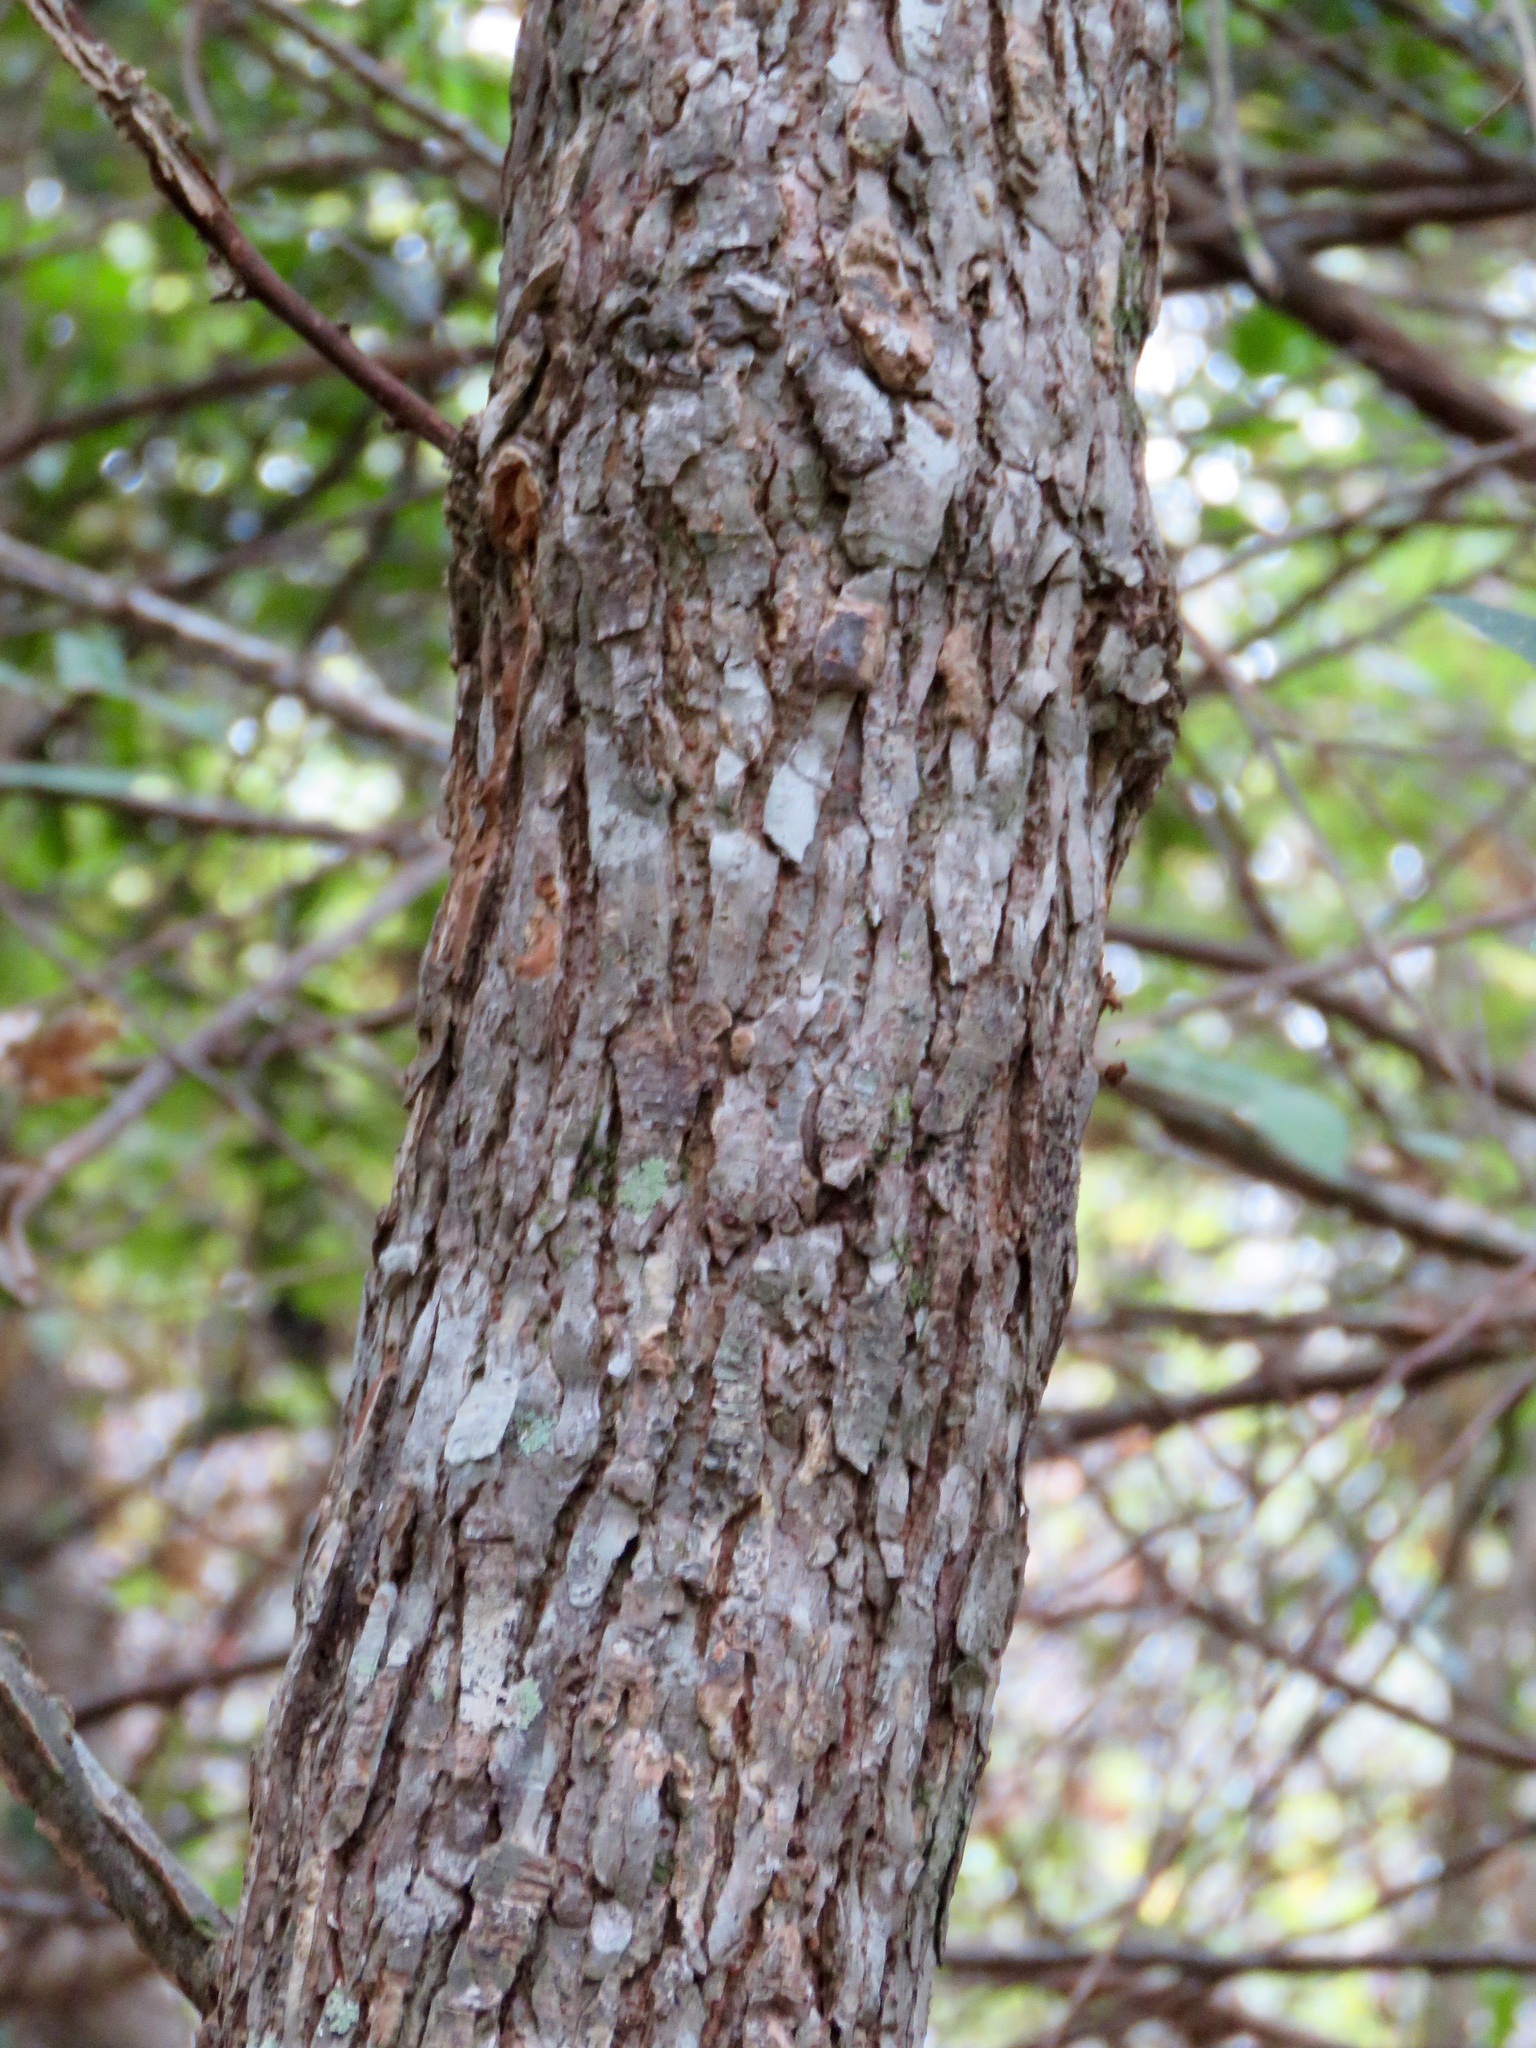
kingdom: Plantae
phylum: Tracheophyta
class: Magnoliopsida
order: Rosales
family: Ulmaceae
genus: Ulmus
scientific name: Ulmus alata
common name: Winged elm
